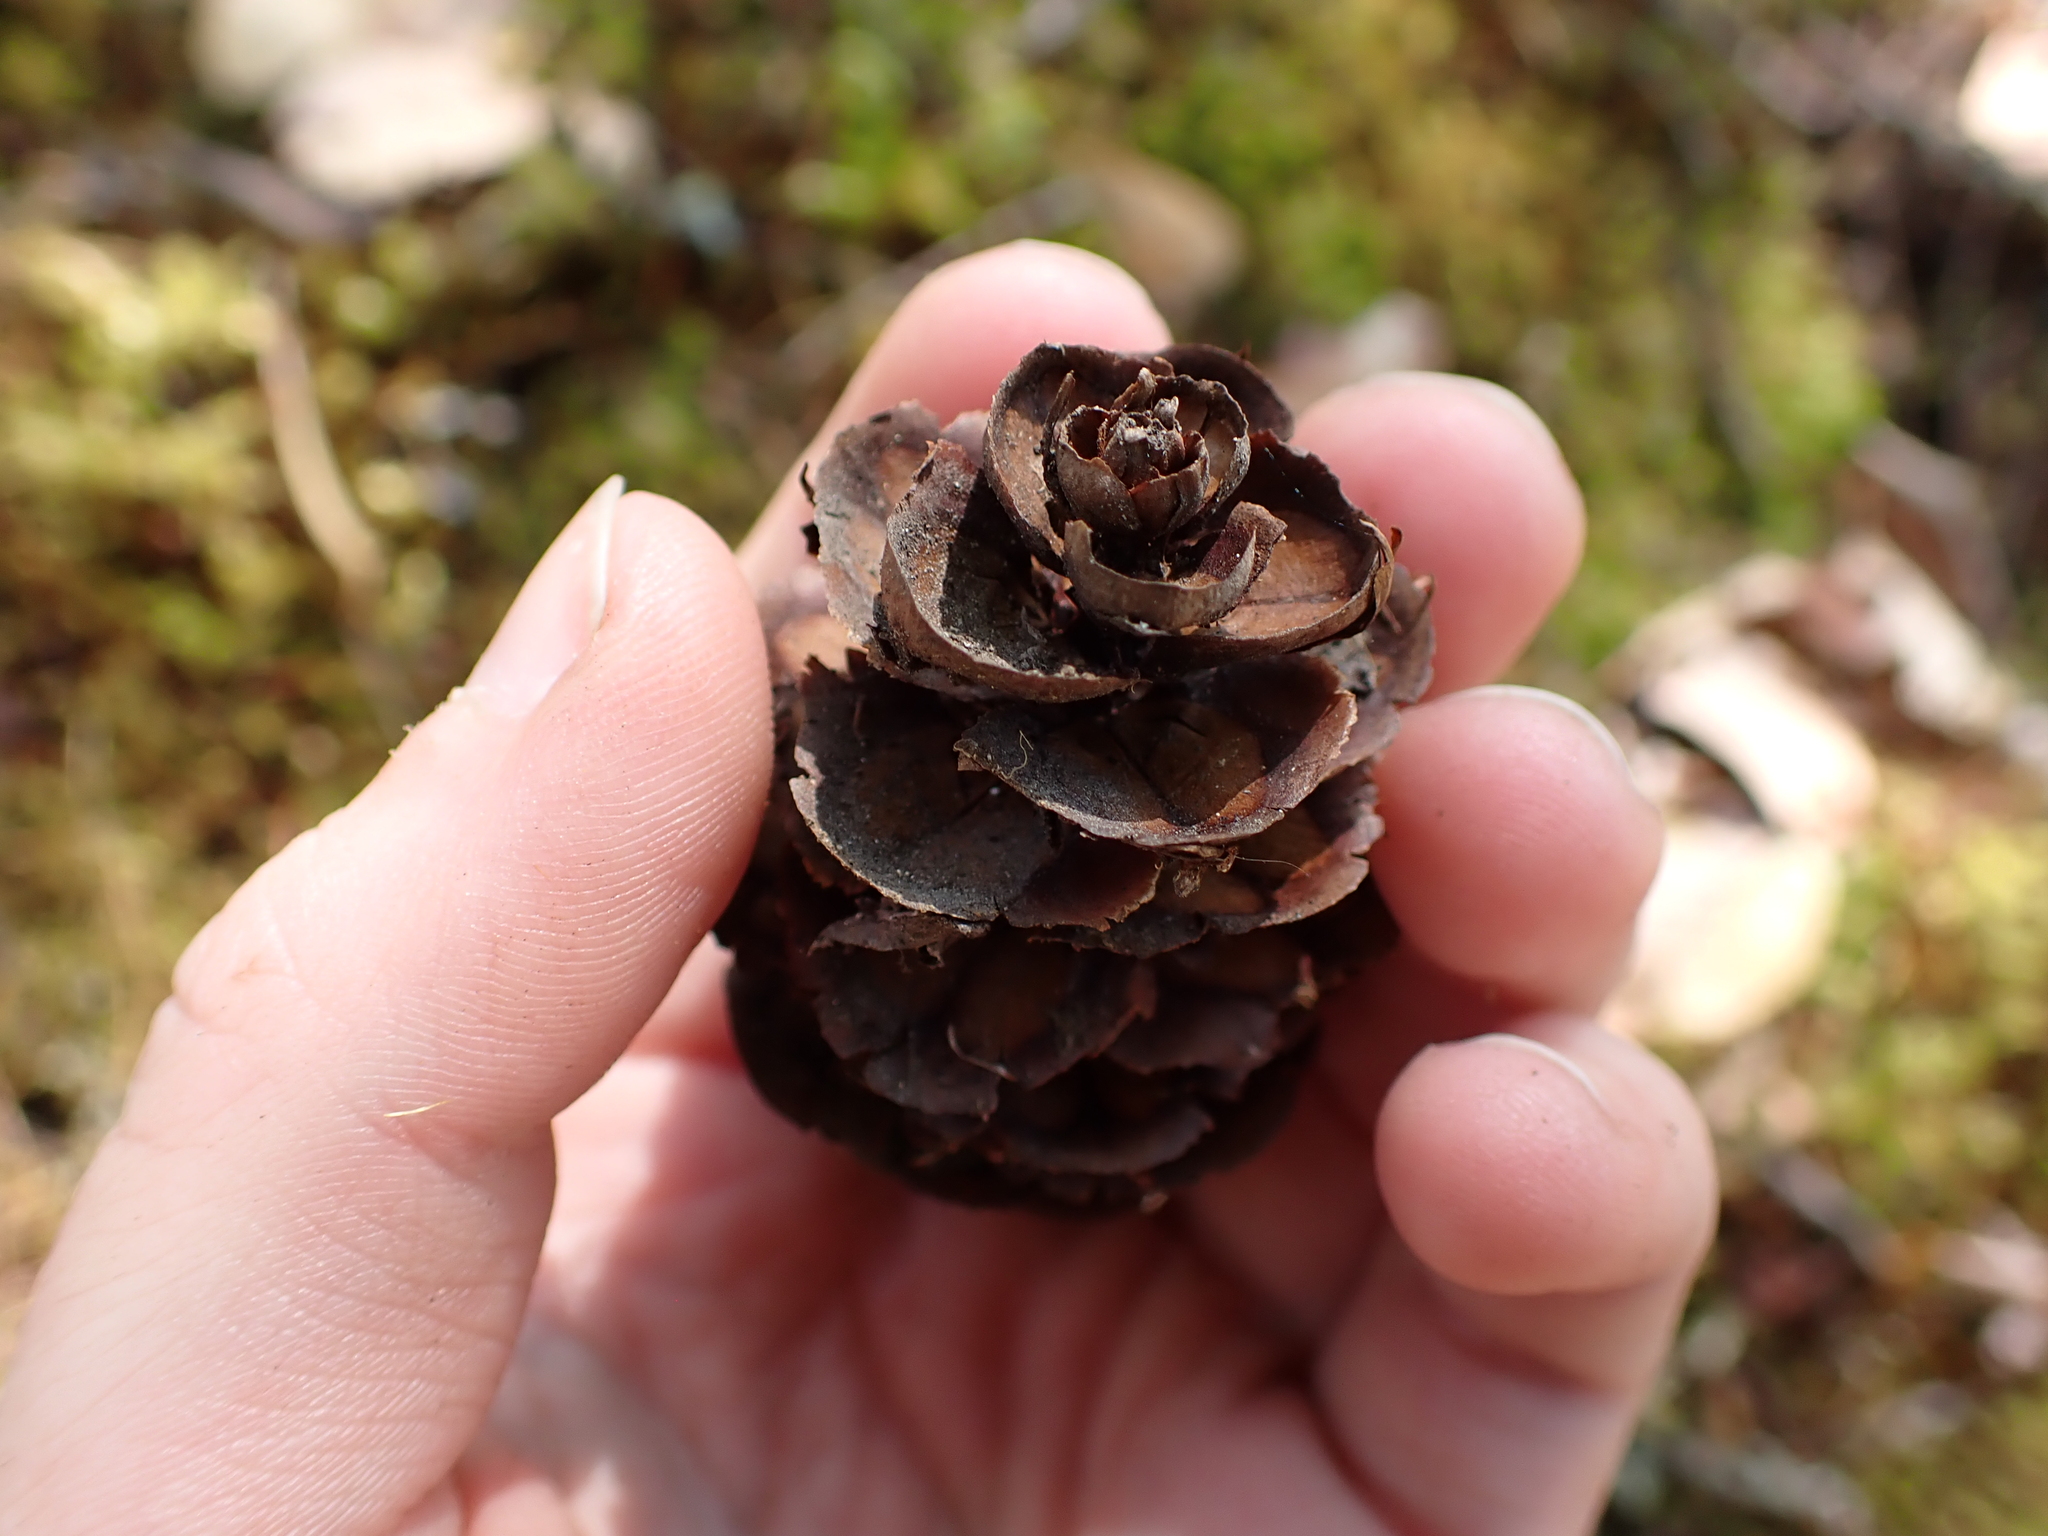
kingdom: Plantae
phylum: Tracheophyta
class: Pinopsida
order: Pinales
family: Pinaceae
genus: Pseudotsuga
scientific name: Pseudotsuga menziesii
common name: Douglas fir
